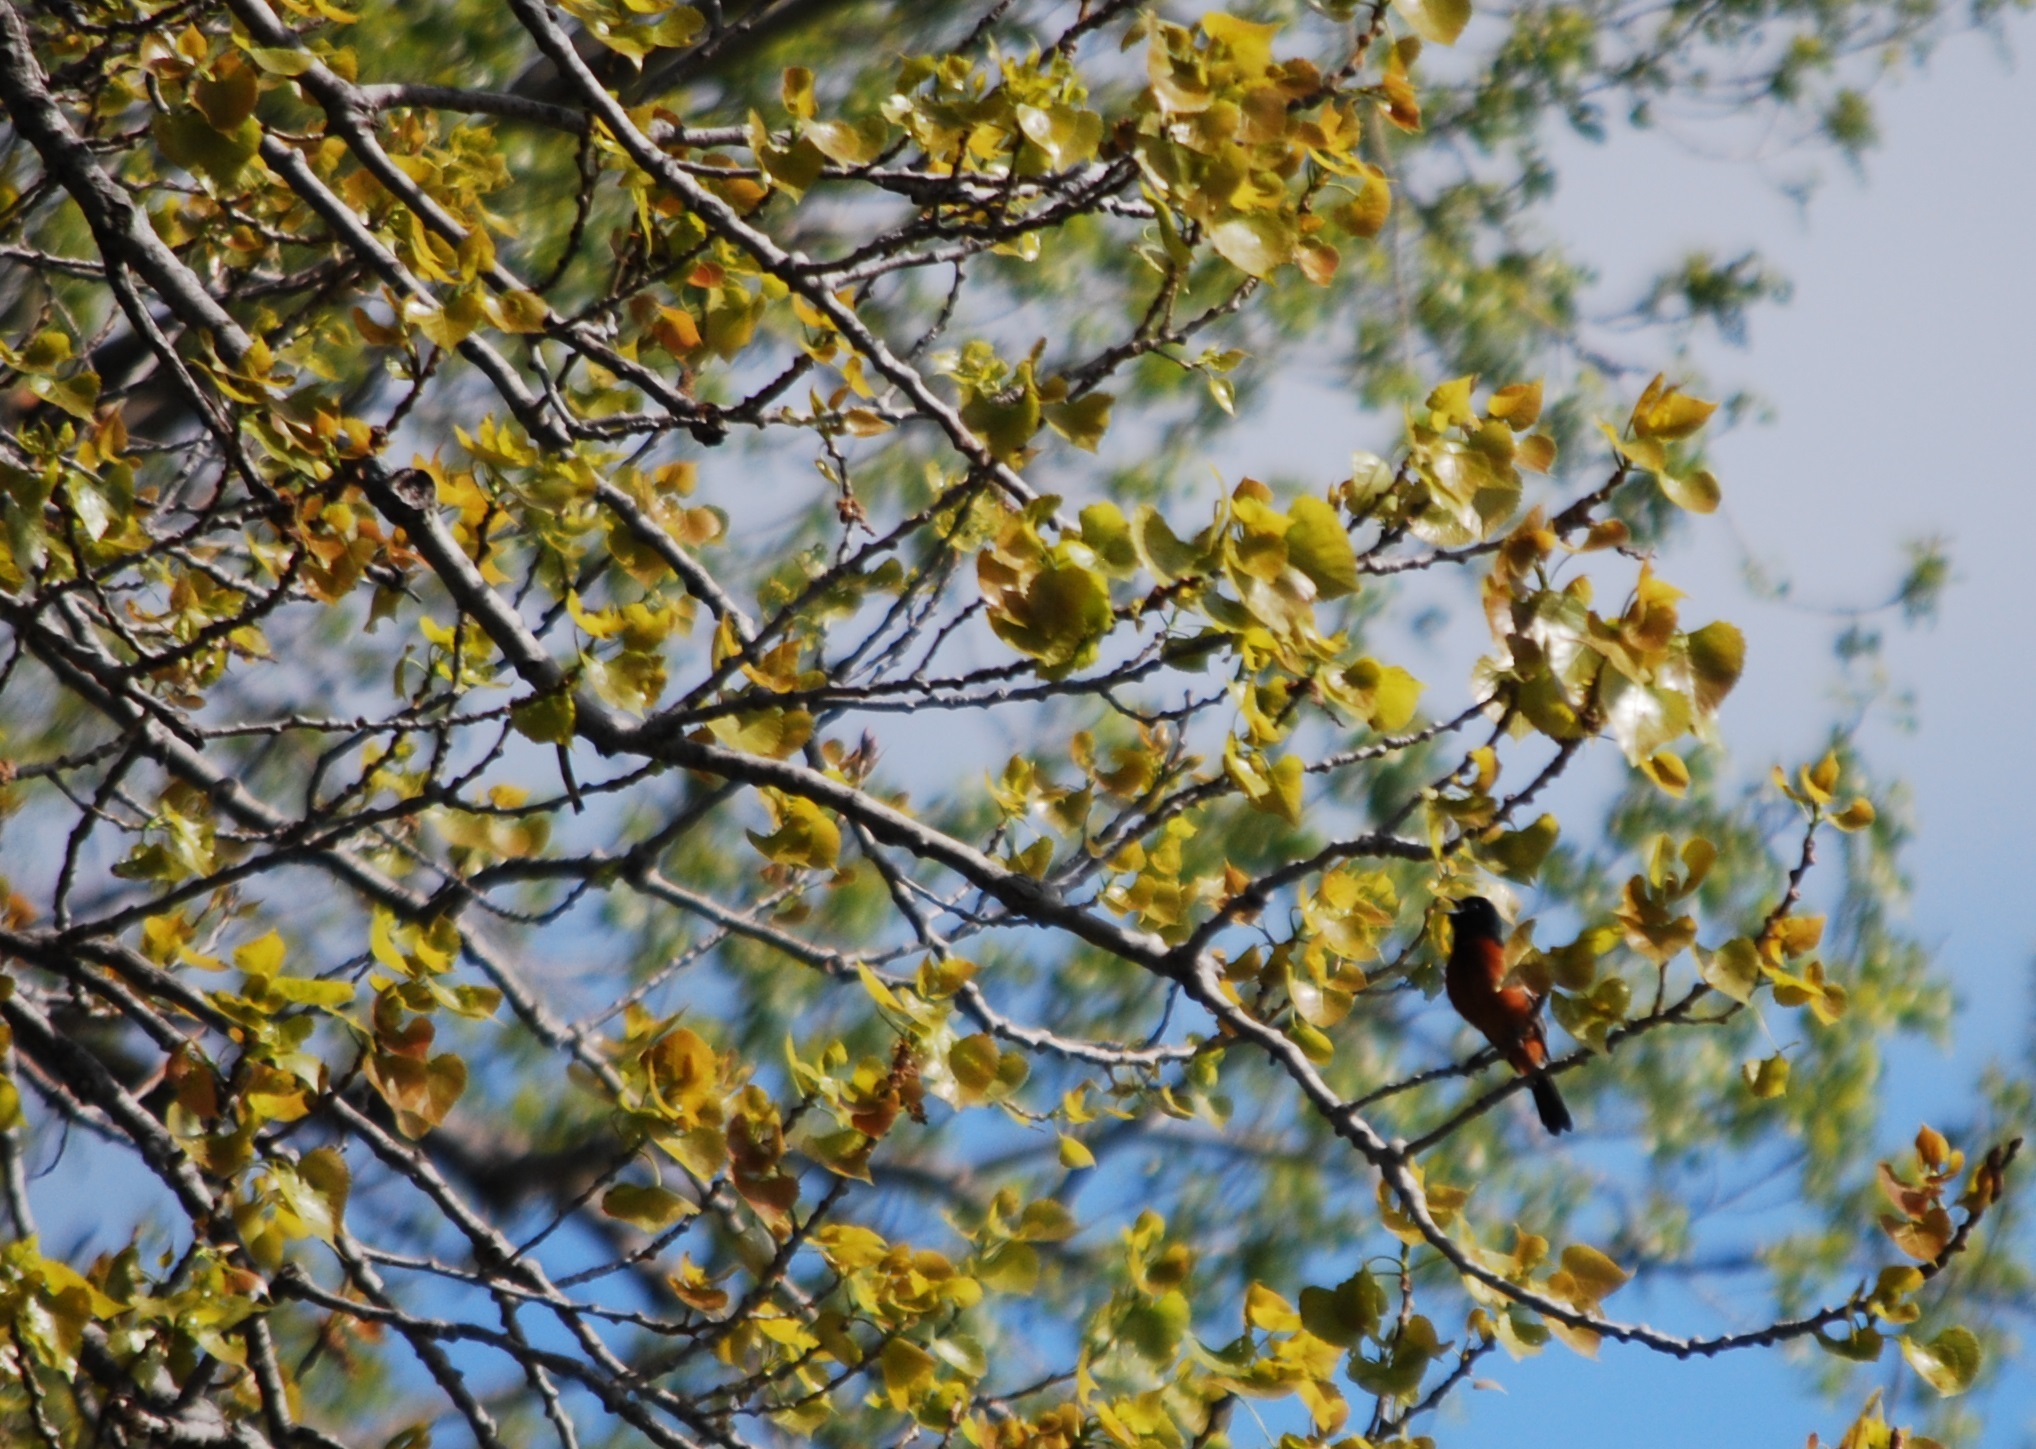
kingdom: Animalia
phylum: Chordata
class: Aves
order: Passeriformes
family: Icteridae
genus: Icterus
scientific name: Icterus spurius
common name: Orchard oriole
